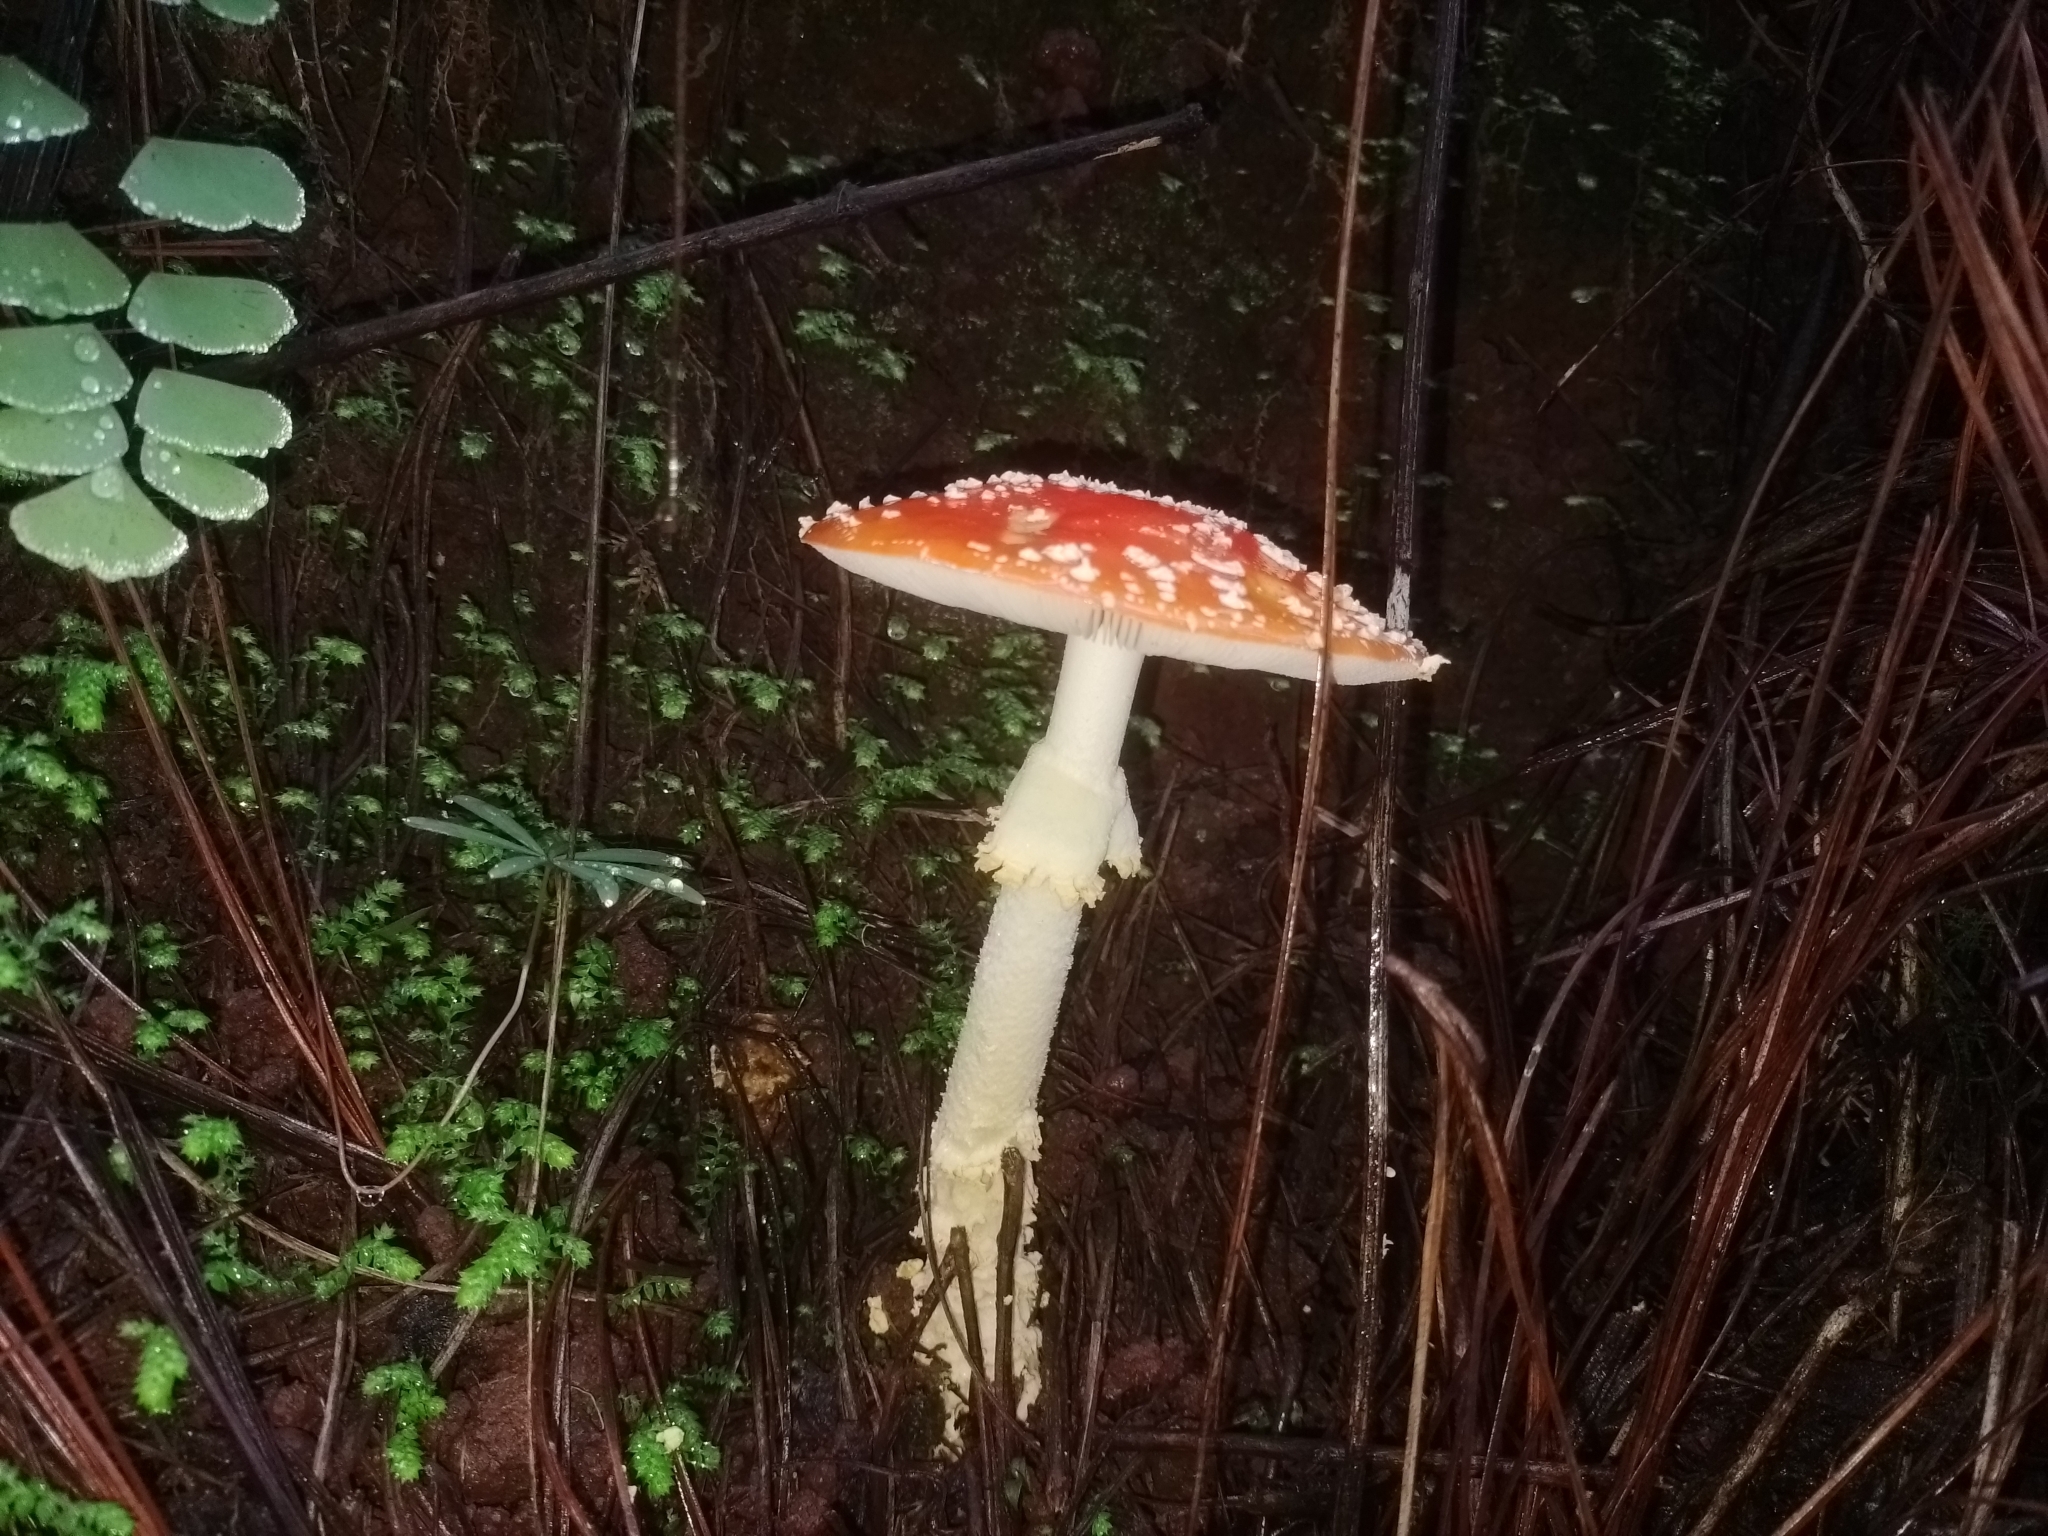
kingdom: Fungi
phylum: Basidiomycota
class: Agaricomycetes
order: Agaricales
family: Amanitaceae
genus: Amanita
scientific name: Amanita muscaria
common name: Fly agaric
